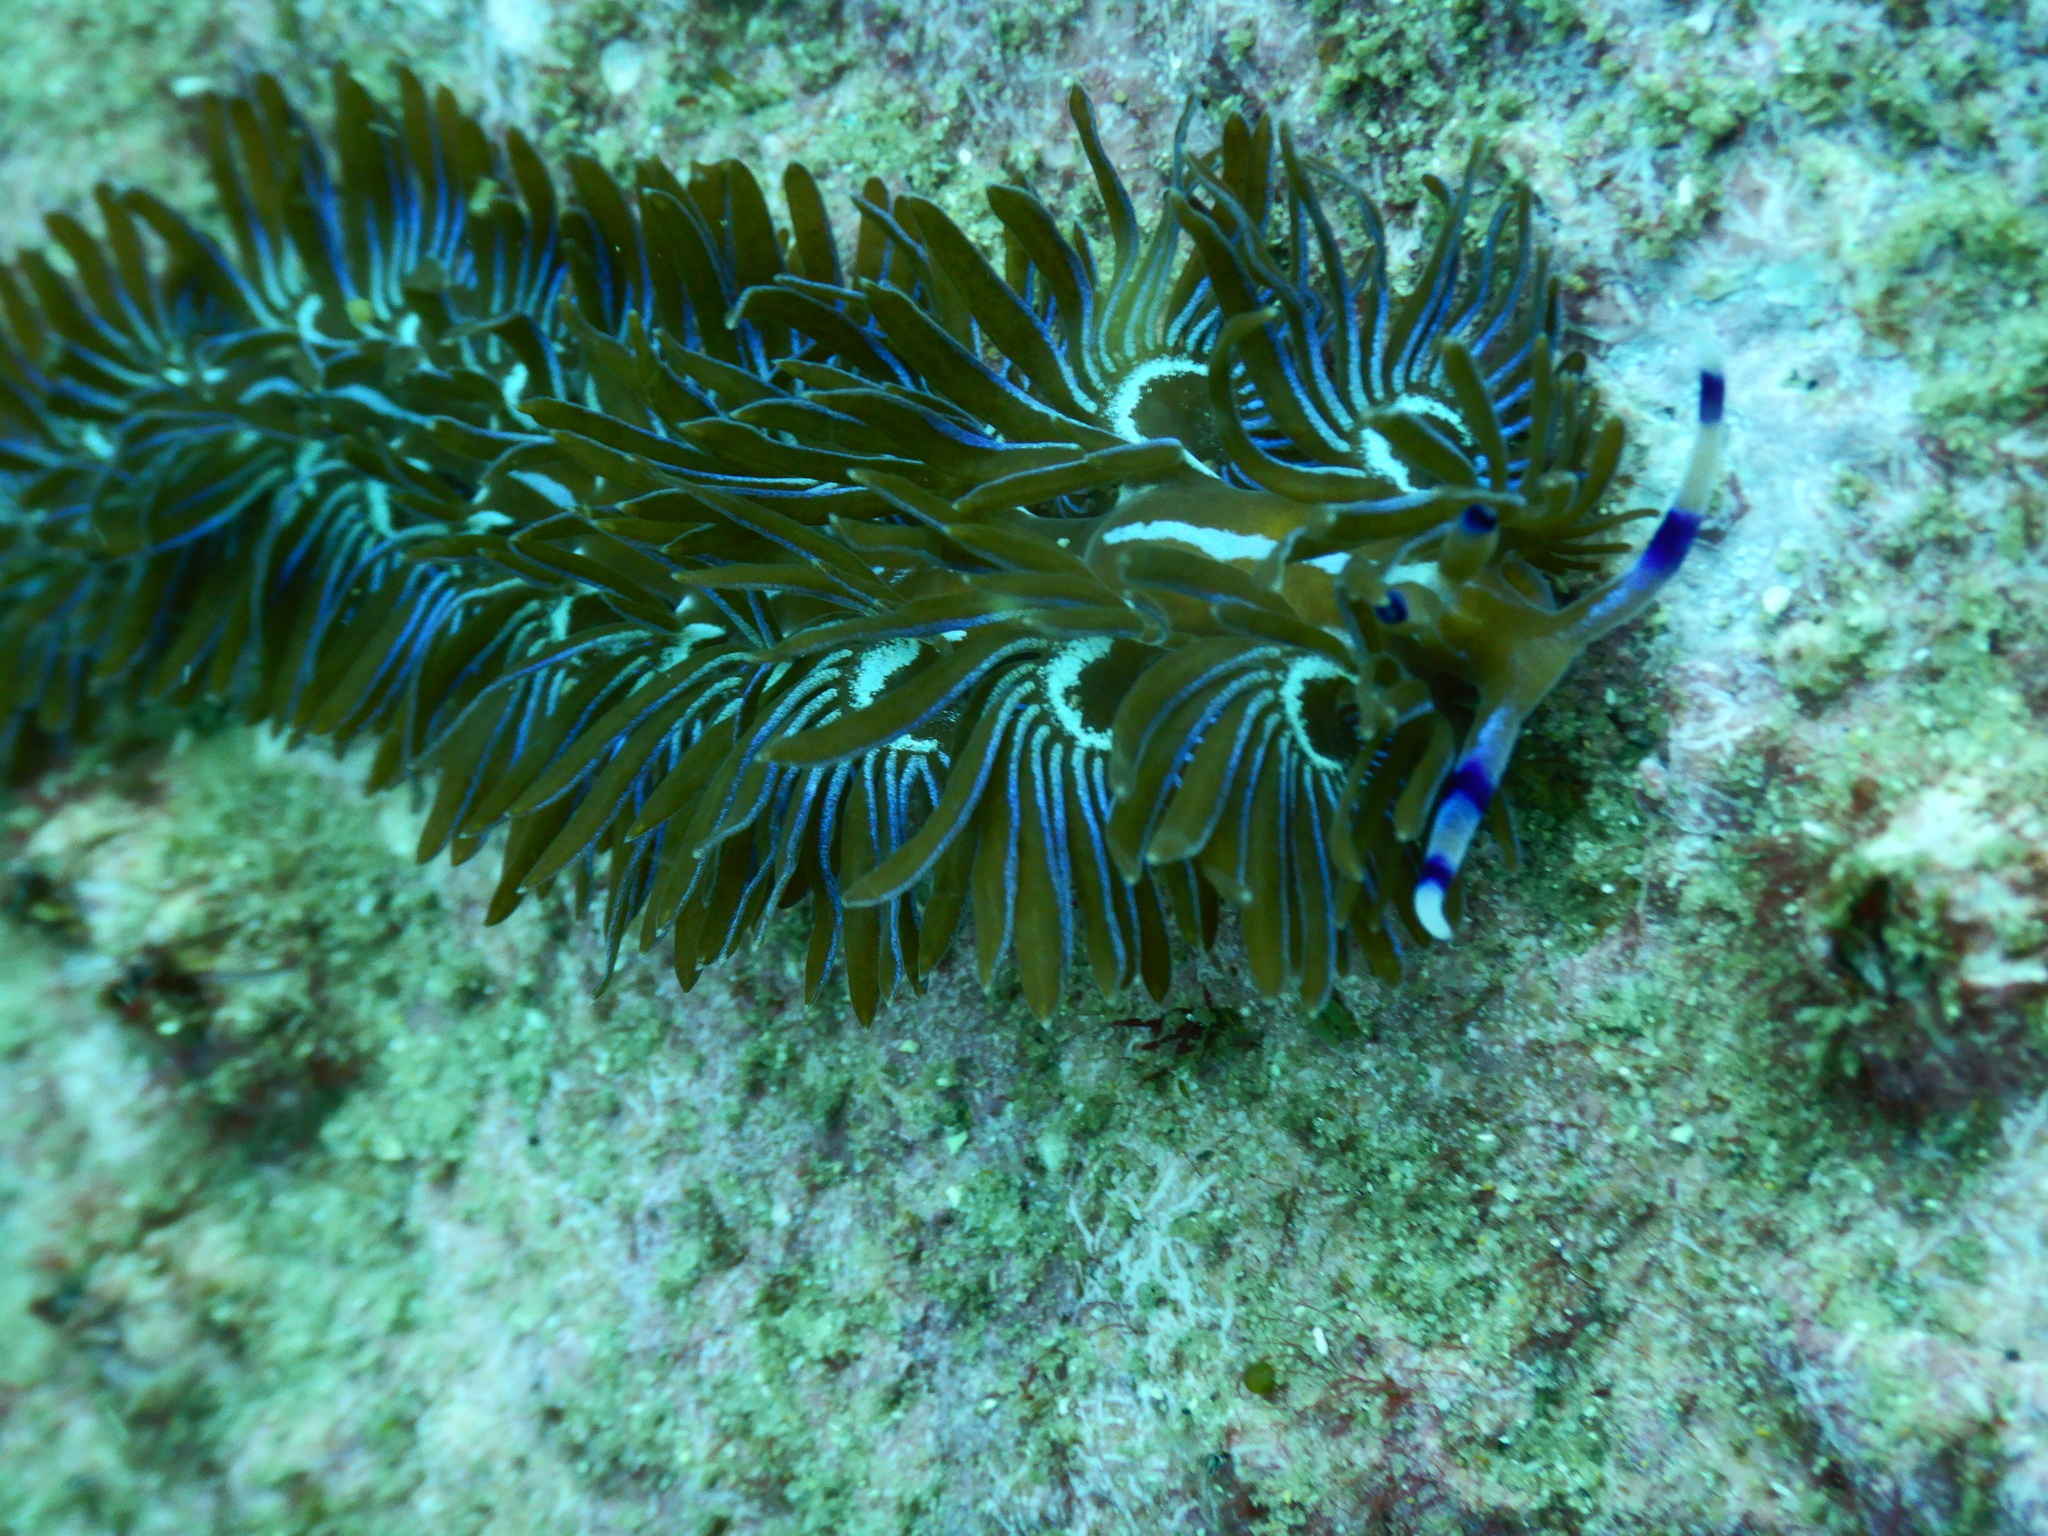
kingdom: Animalia
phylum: Mollusca
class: Gastropoda
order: Nudibranchia
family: Facelinidae
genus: Pteraeolidia
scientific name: Pteraeolidia ianthina
